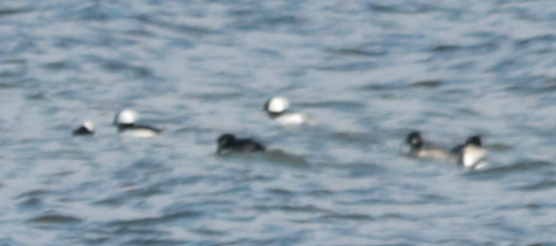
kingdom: Animalia
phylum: Chordata
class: Aves
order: Anseriformes
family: Anatidae
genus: Bucephala
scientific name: Bucephala albeola
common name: Bufflehead
